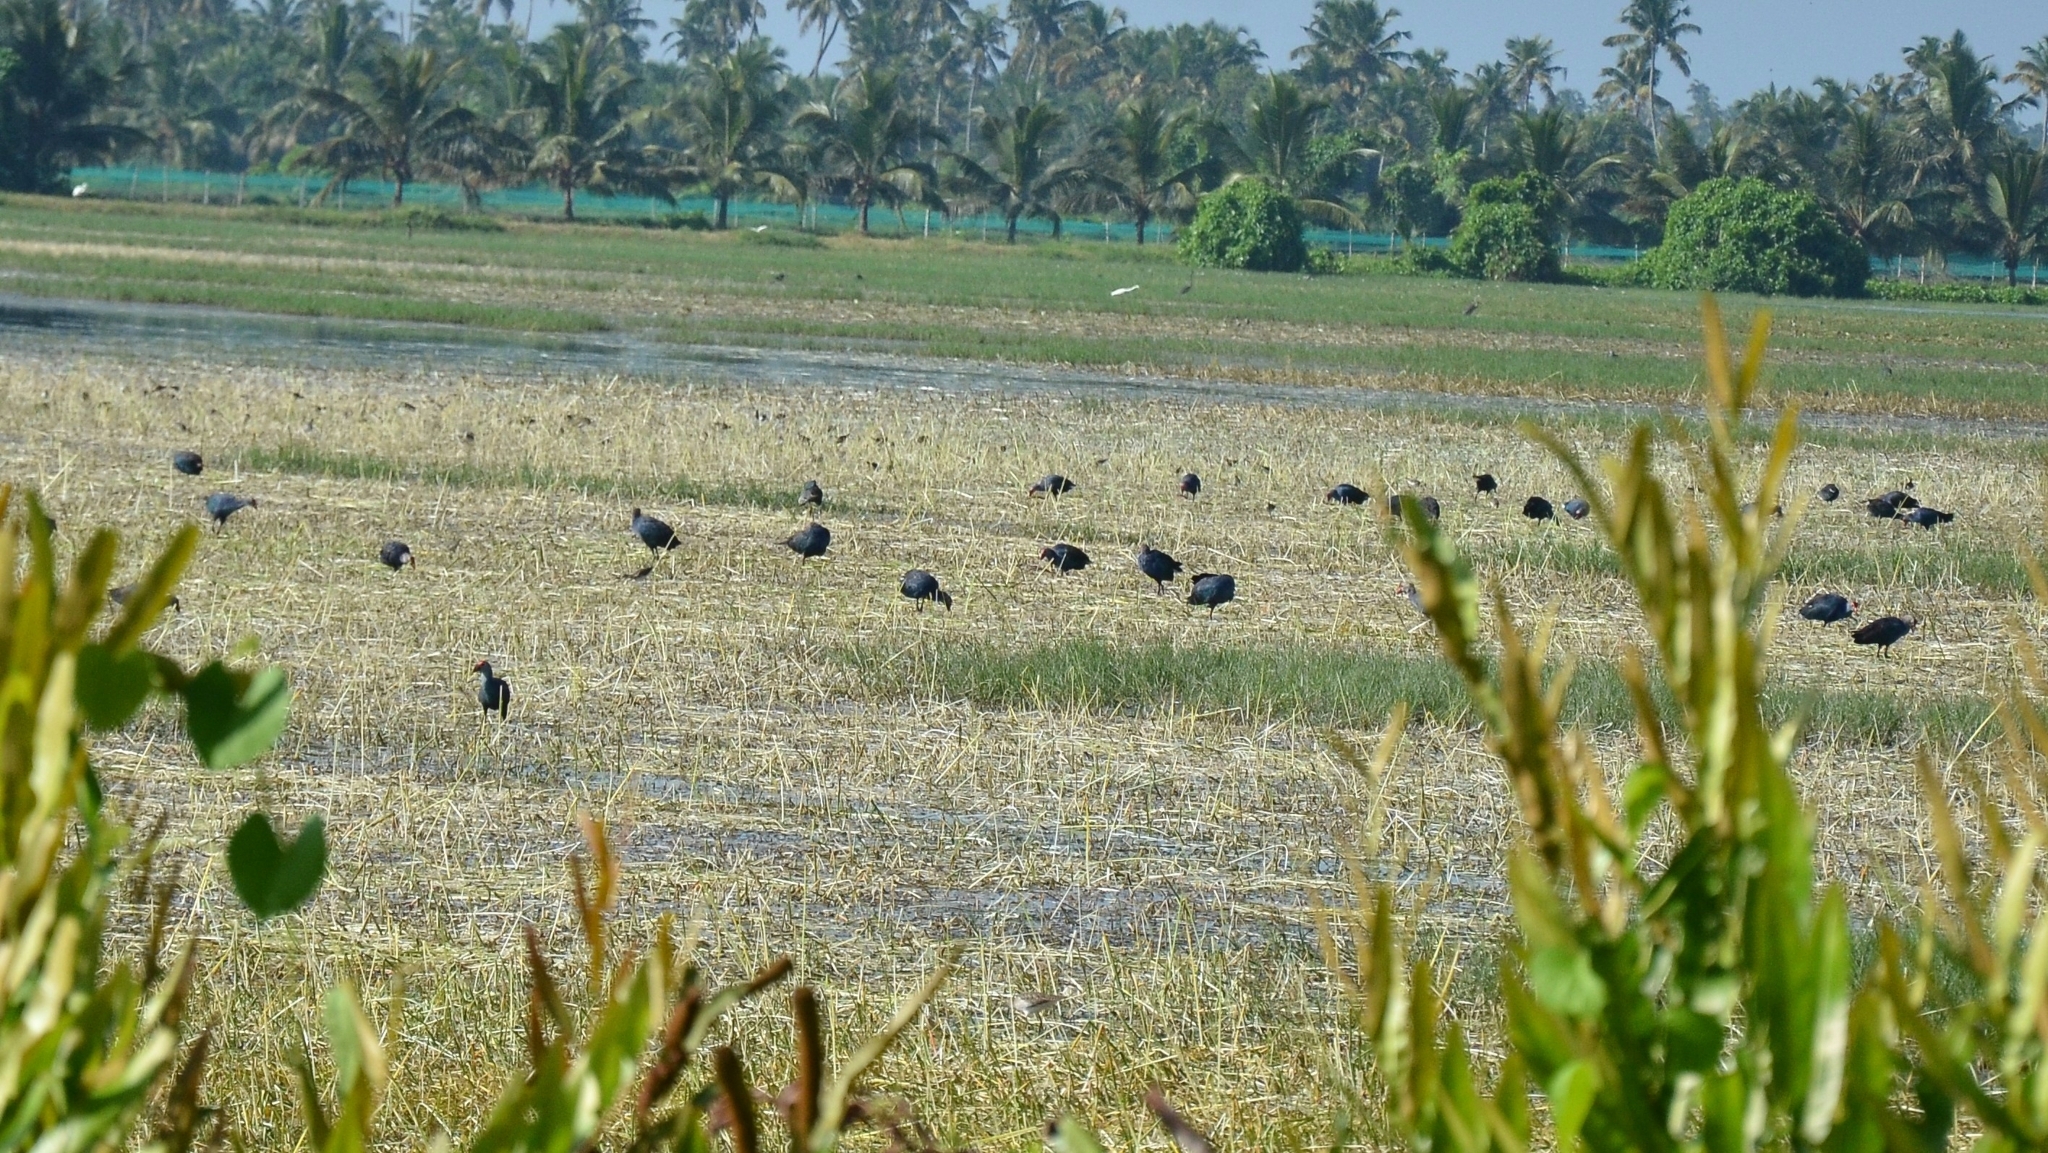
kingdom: Animalia
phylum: Chordata
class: Aves
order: Gruiformes
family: Rallidae
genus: Porphyrio
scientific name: Porphyrio porphyrio
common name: Purple swamphen
